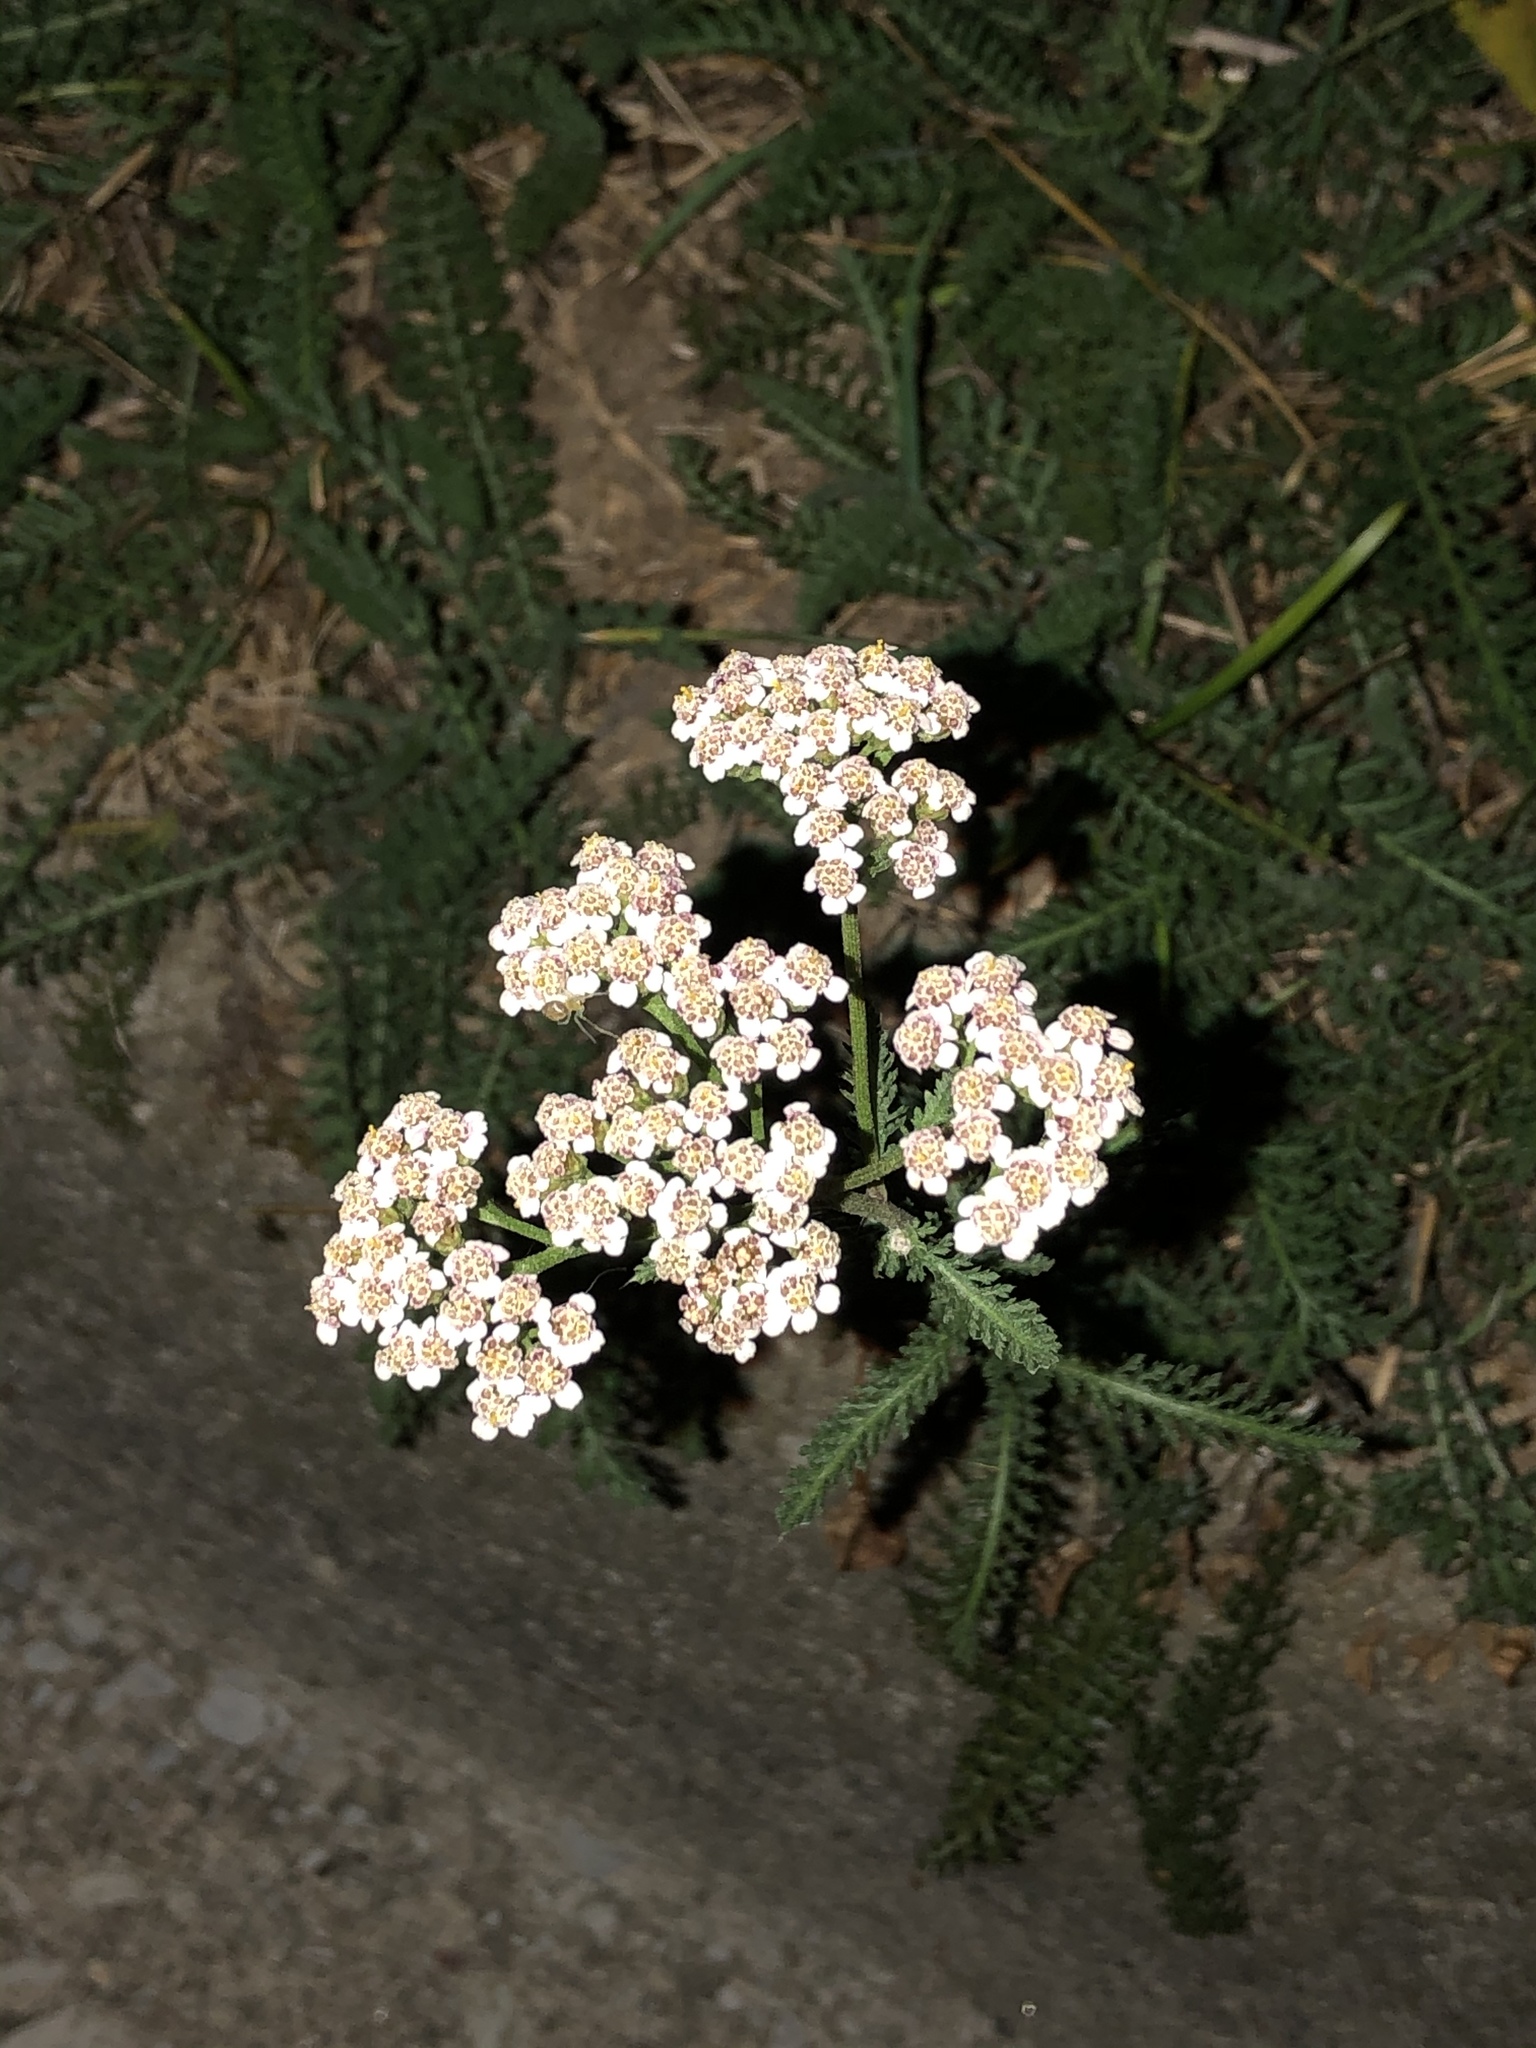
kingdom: Plantae
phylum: Tracheophyta
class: Magnoliopsida
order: Asterales
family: Asteraceae
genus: Achillea
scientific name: Achillea millefolium
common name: Yarrow
